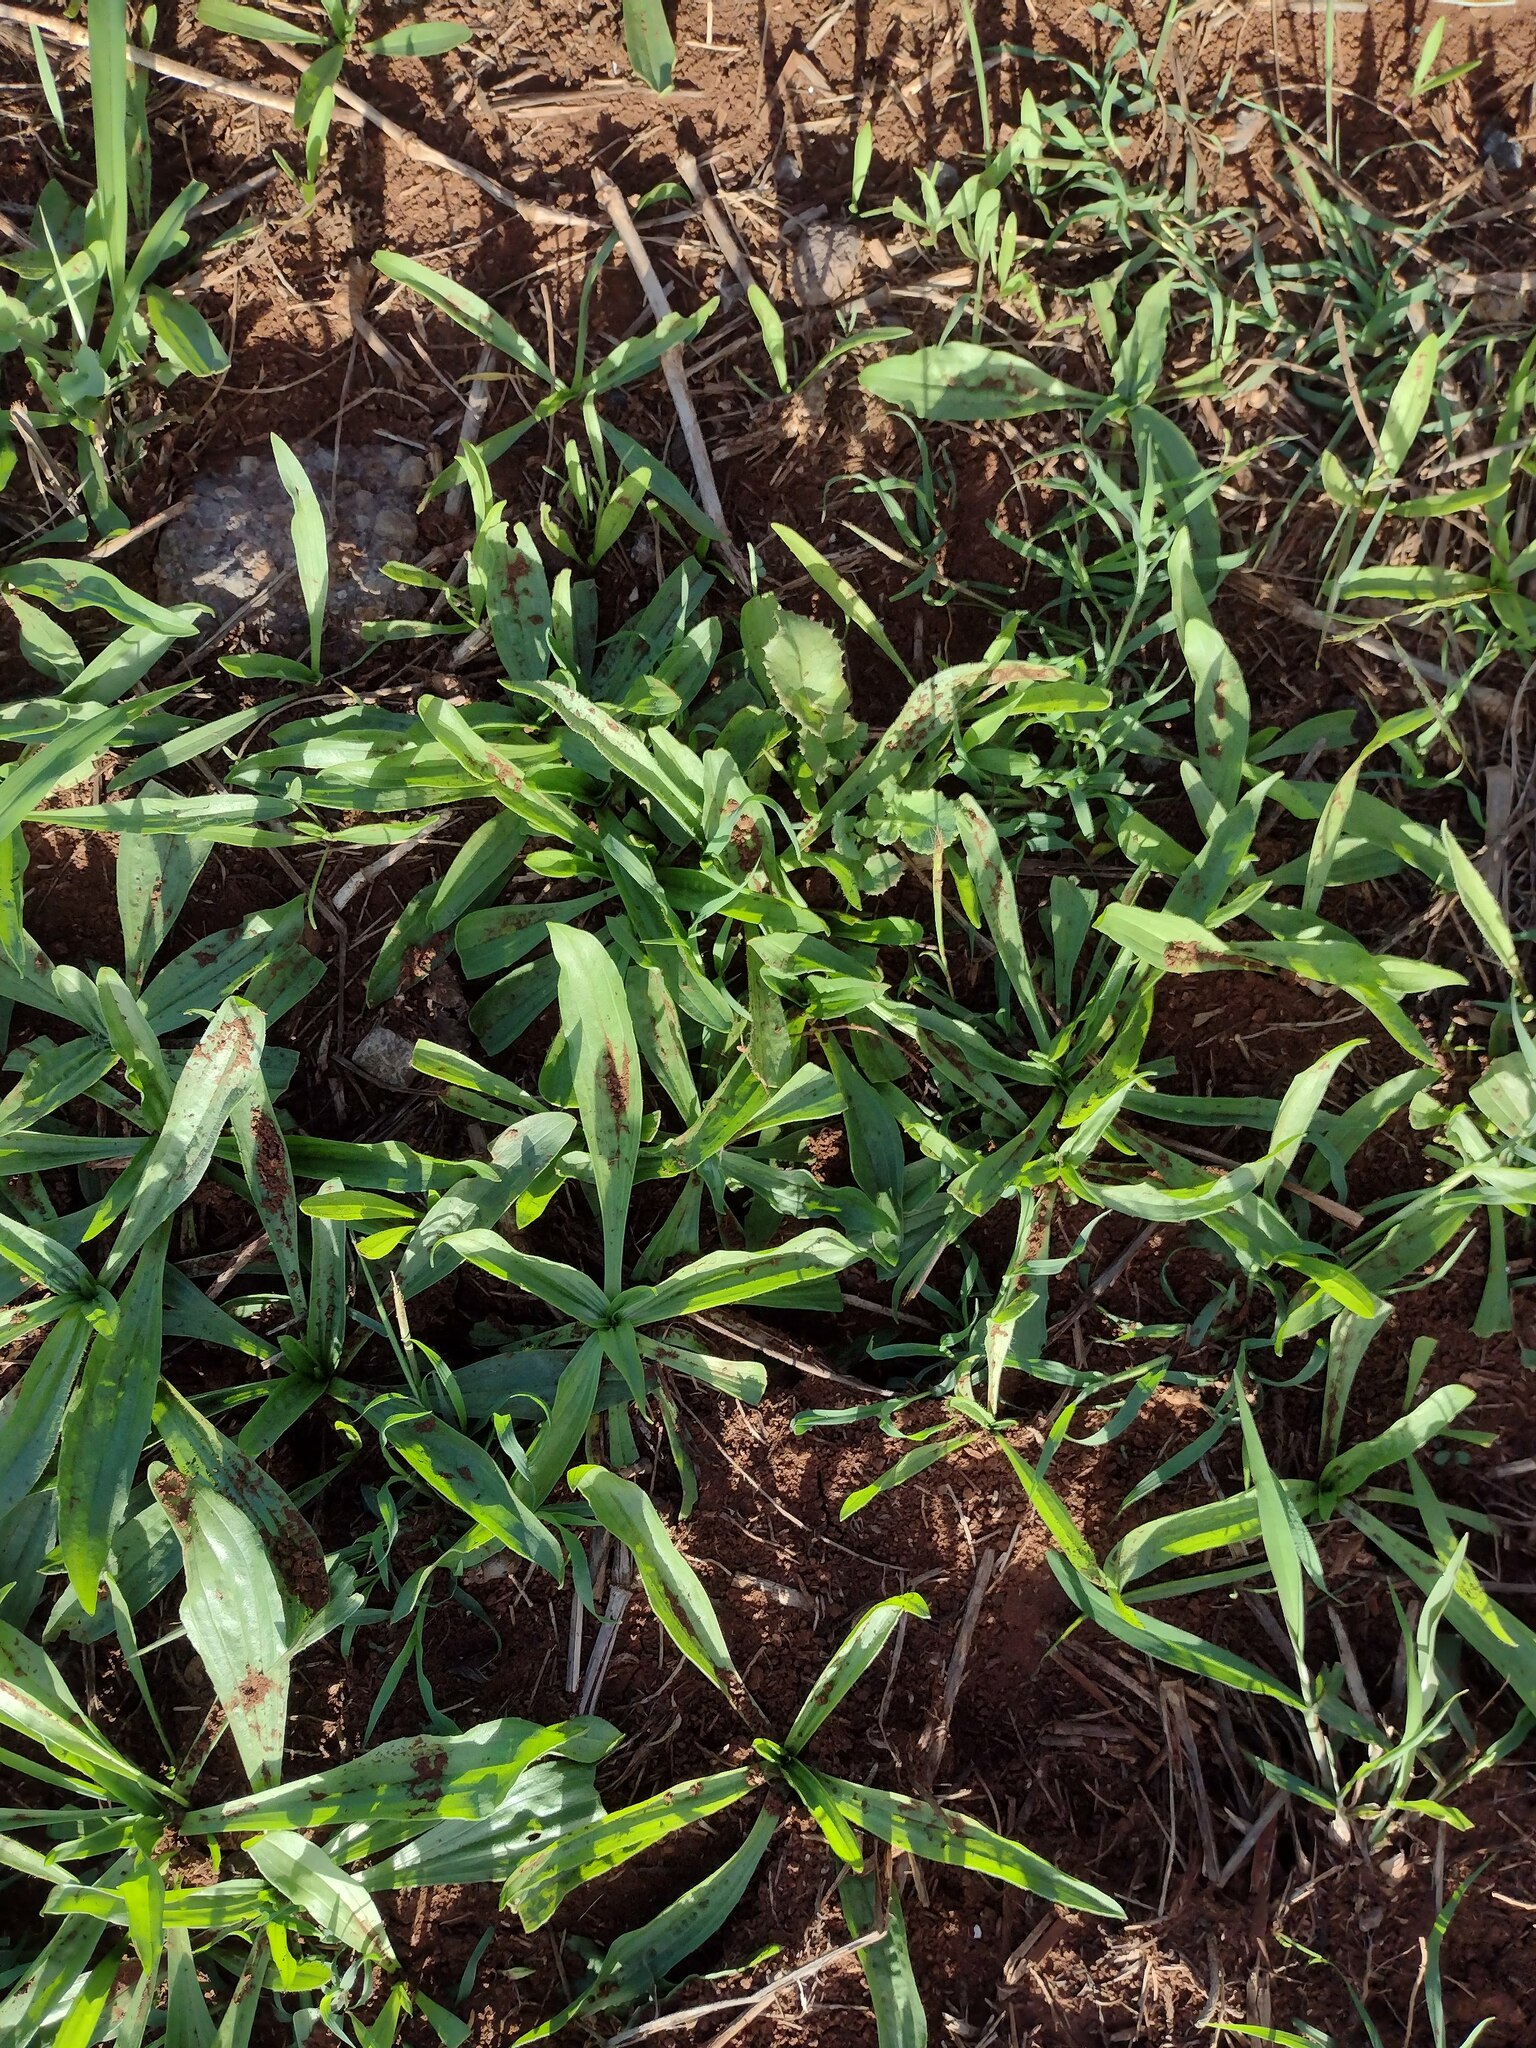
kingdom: Plantae
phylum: Tracheophyta
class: Magnoliopsida
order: Lamiales
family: Plantaginaceae
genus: Plantago
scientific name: Plantago lanceolata
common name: Ribwort plantain
